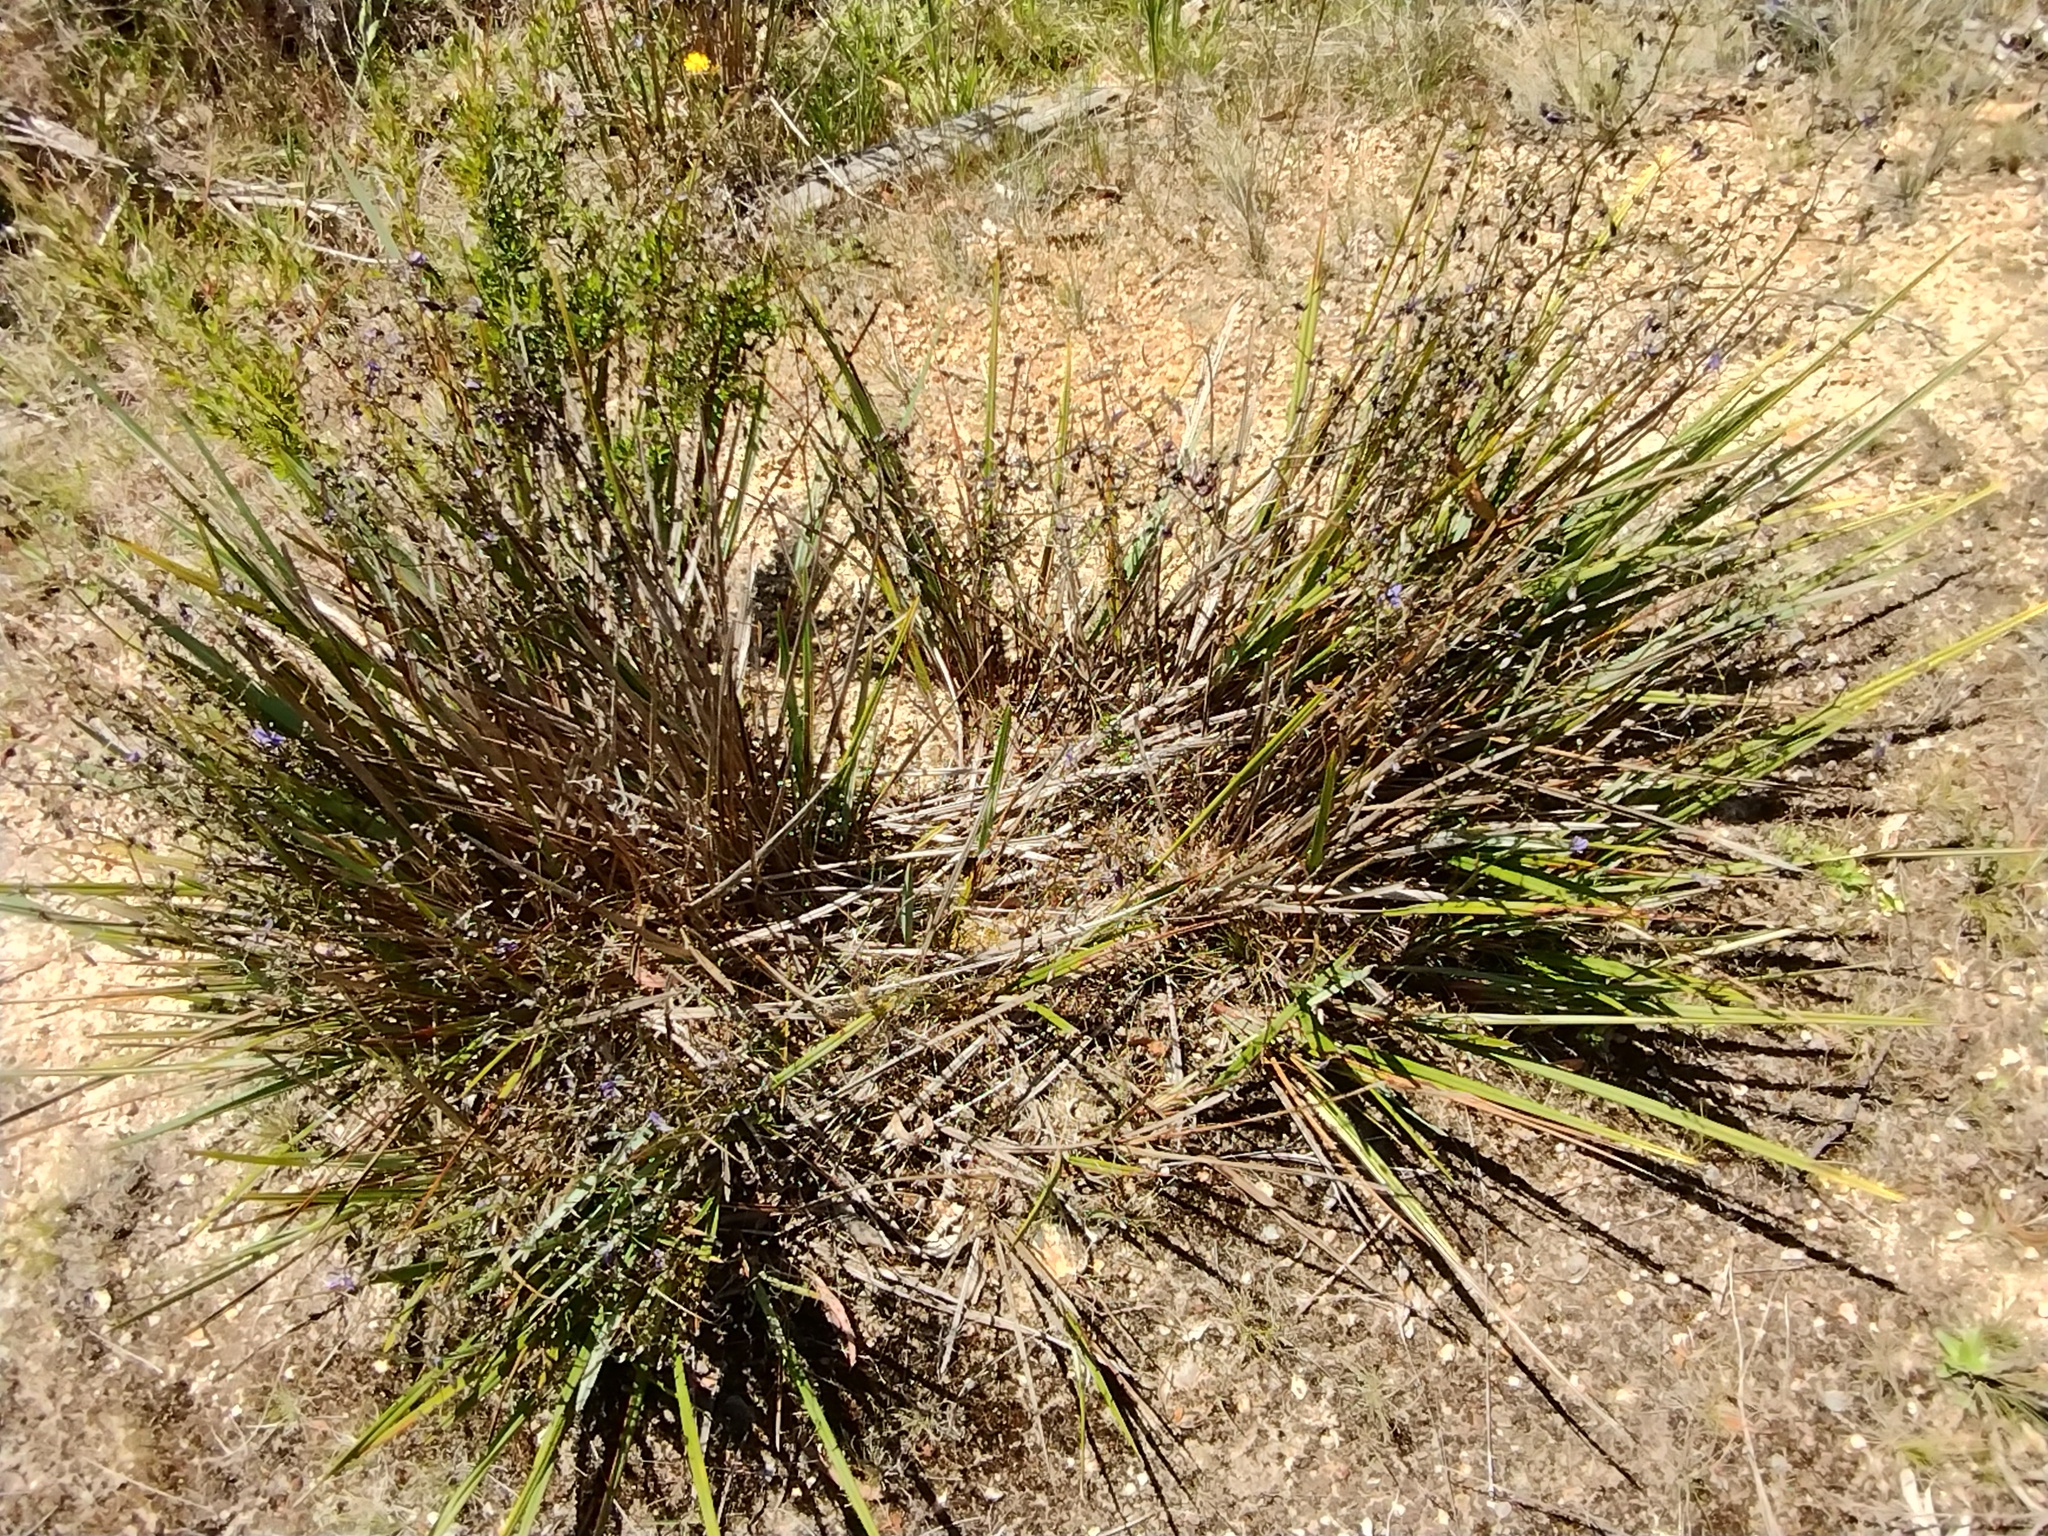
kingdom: Plantae
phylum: Tracheophyta
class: Liliopsida
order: Asparagales
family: Asphodelaceae
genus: Dianella
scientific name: Dianella revoluta
